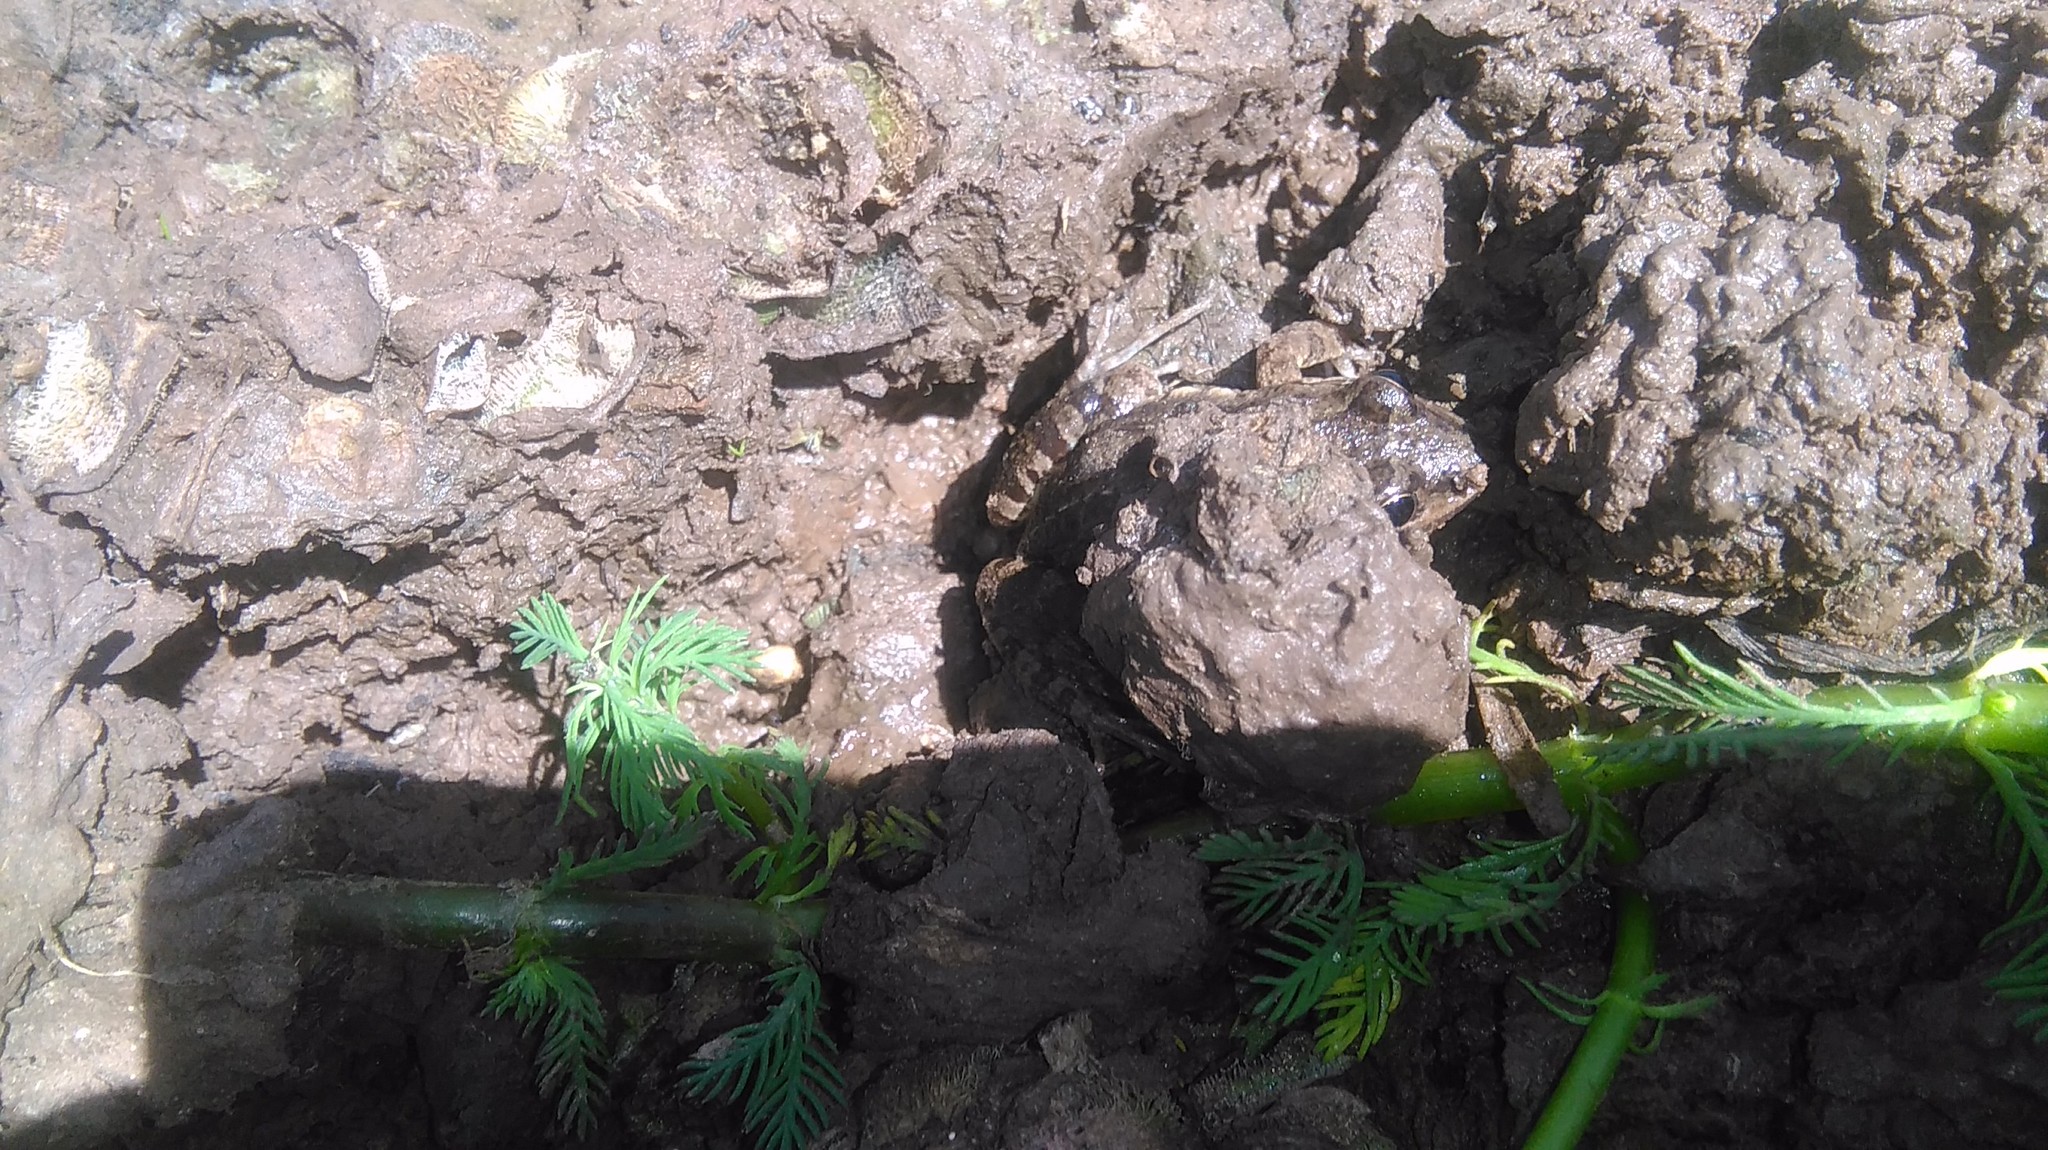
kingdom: Animalia
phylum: Chordata
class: Amphibia
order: Anura
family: Leptodactylidae
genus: Leptodactylus
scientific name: Leptodactylus latinasus
